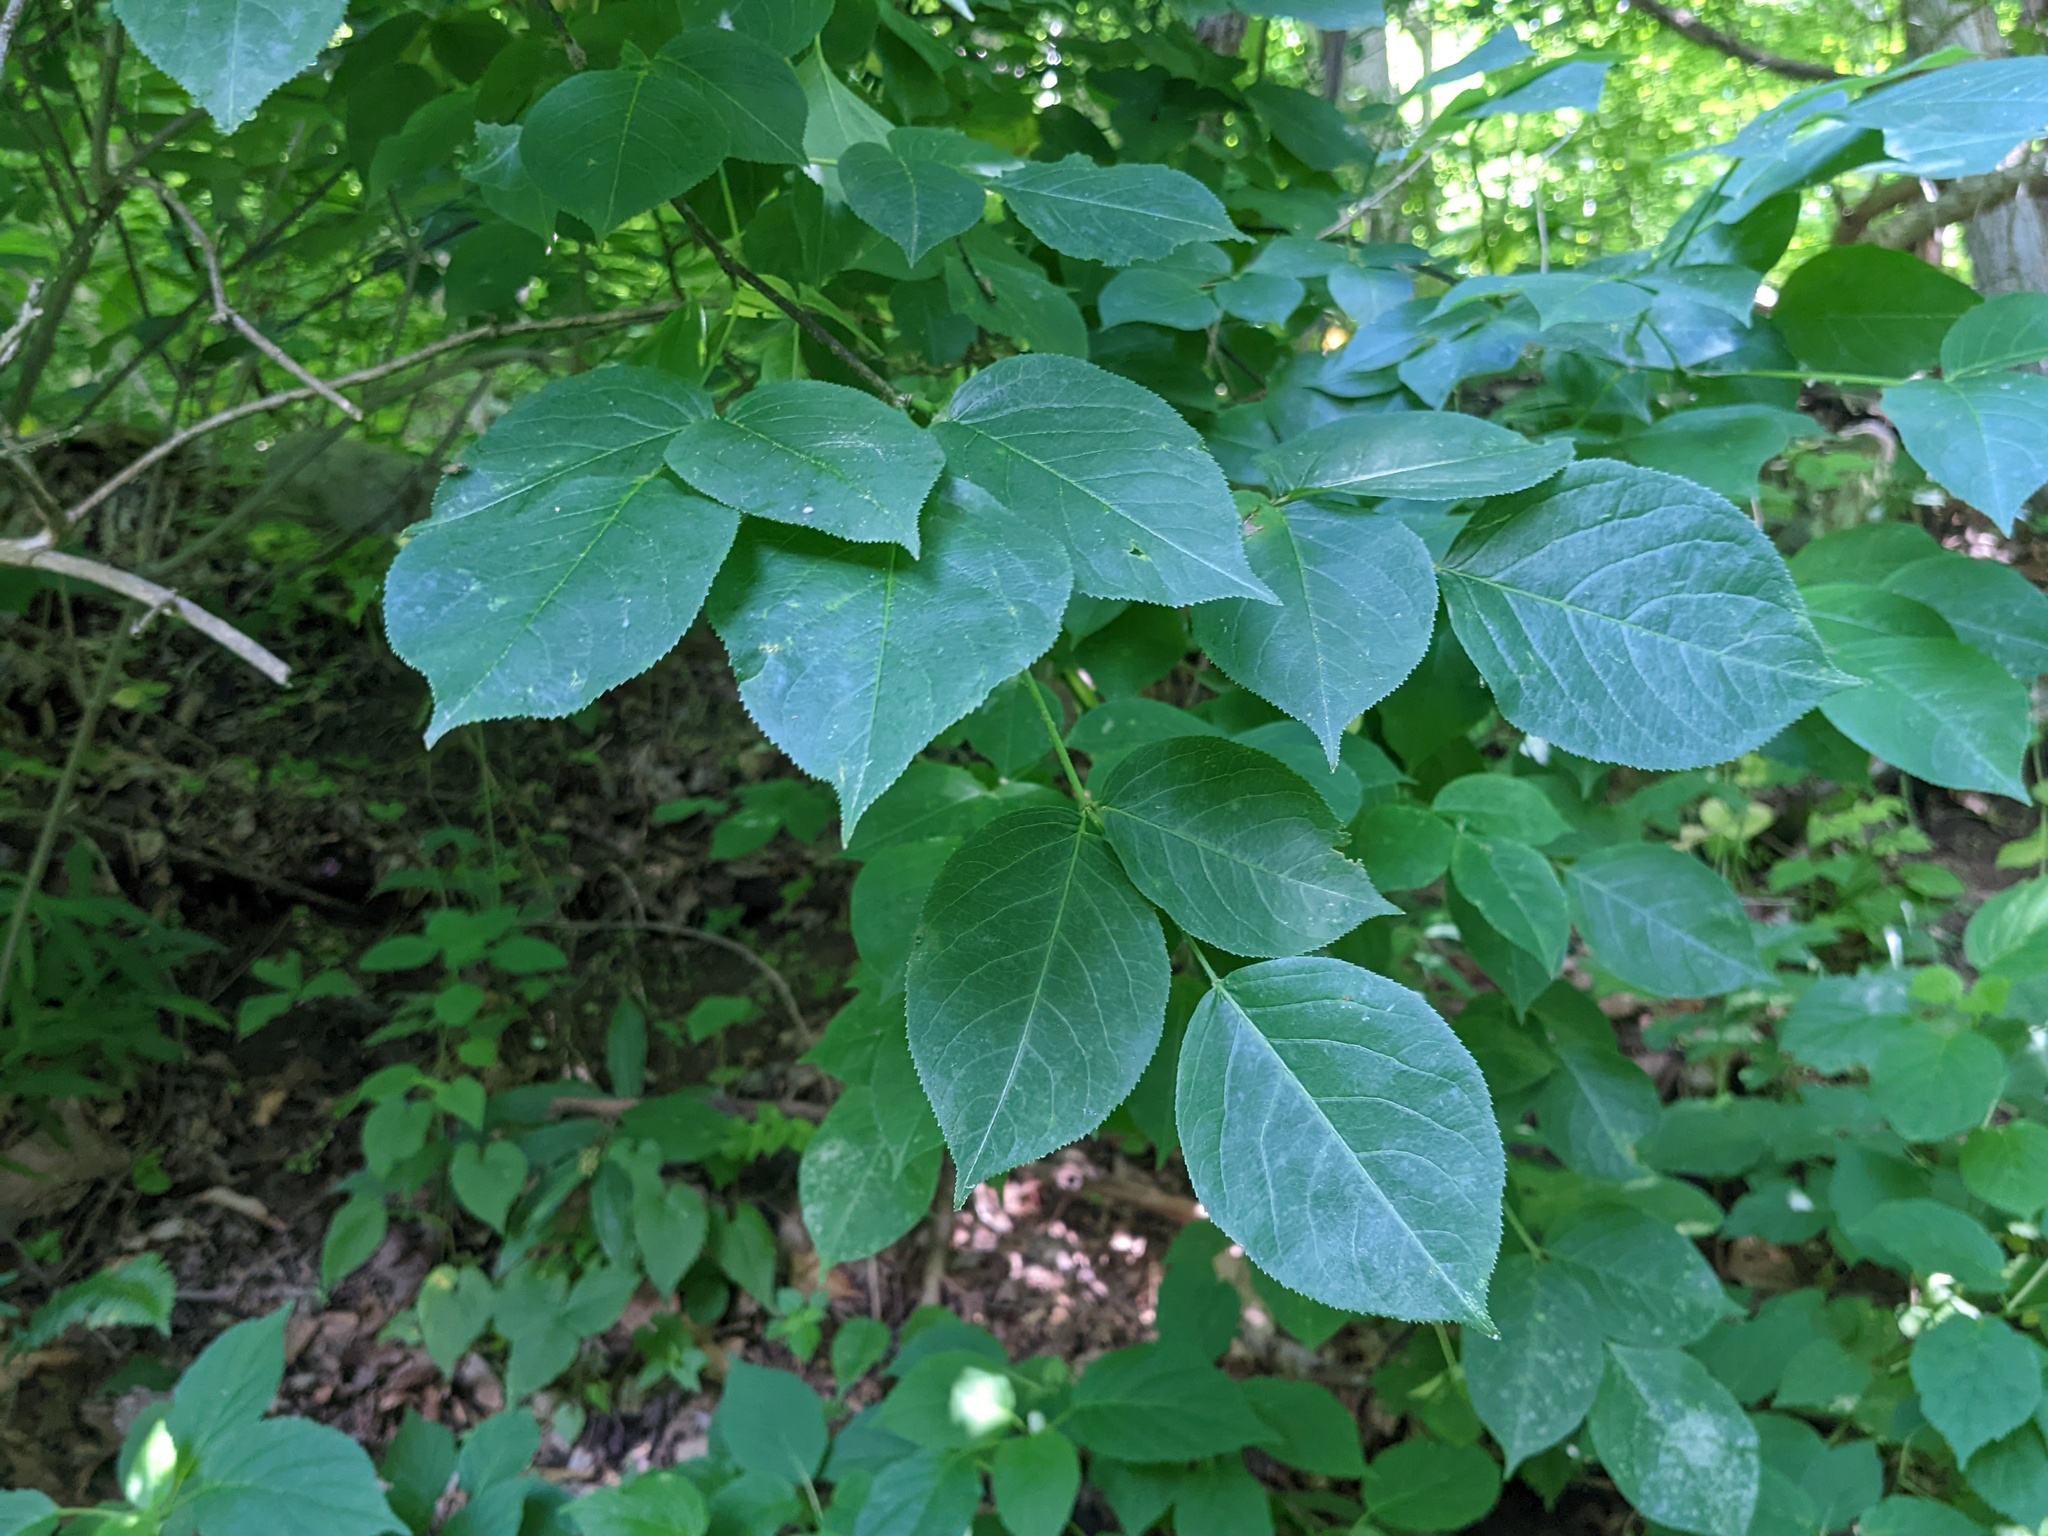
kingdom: Plantae
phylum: Tracheophyta
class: Magnoliopsida
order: Crossosomatales
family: Staphyleaceae
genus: Staphylea
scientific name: Staphylea trifolia
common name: American bladdernut
